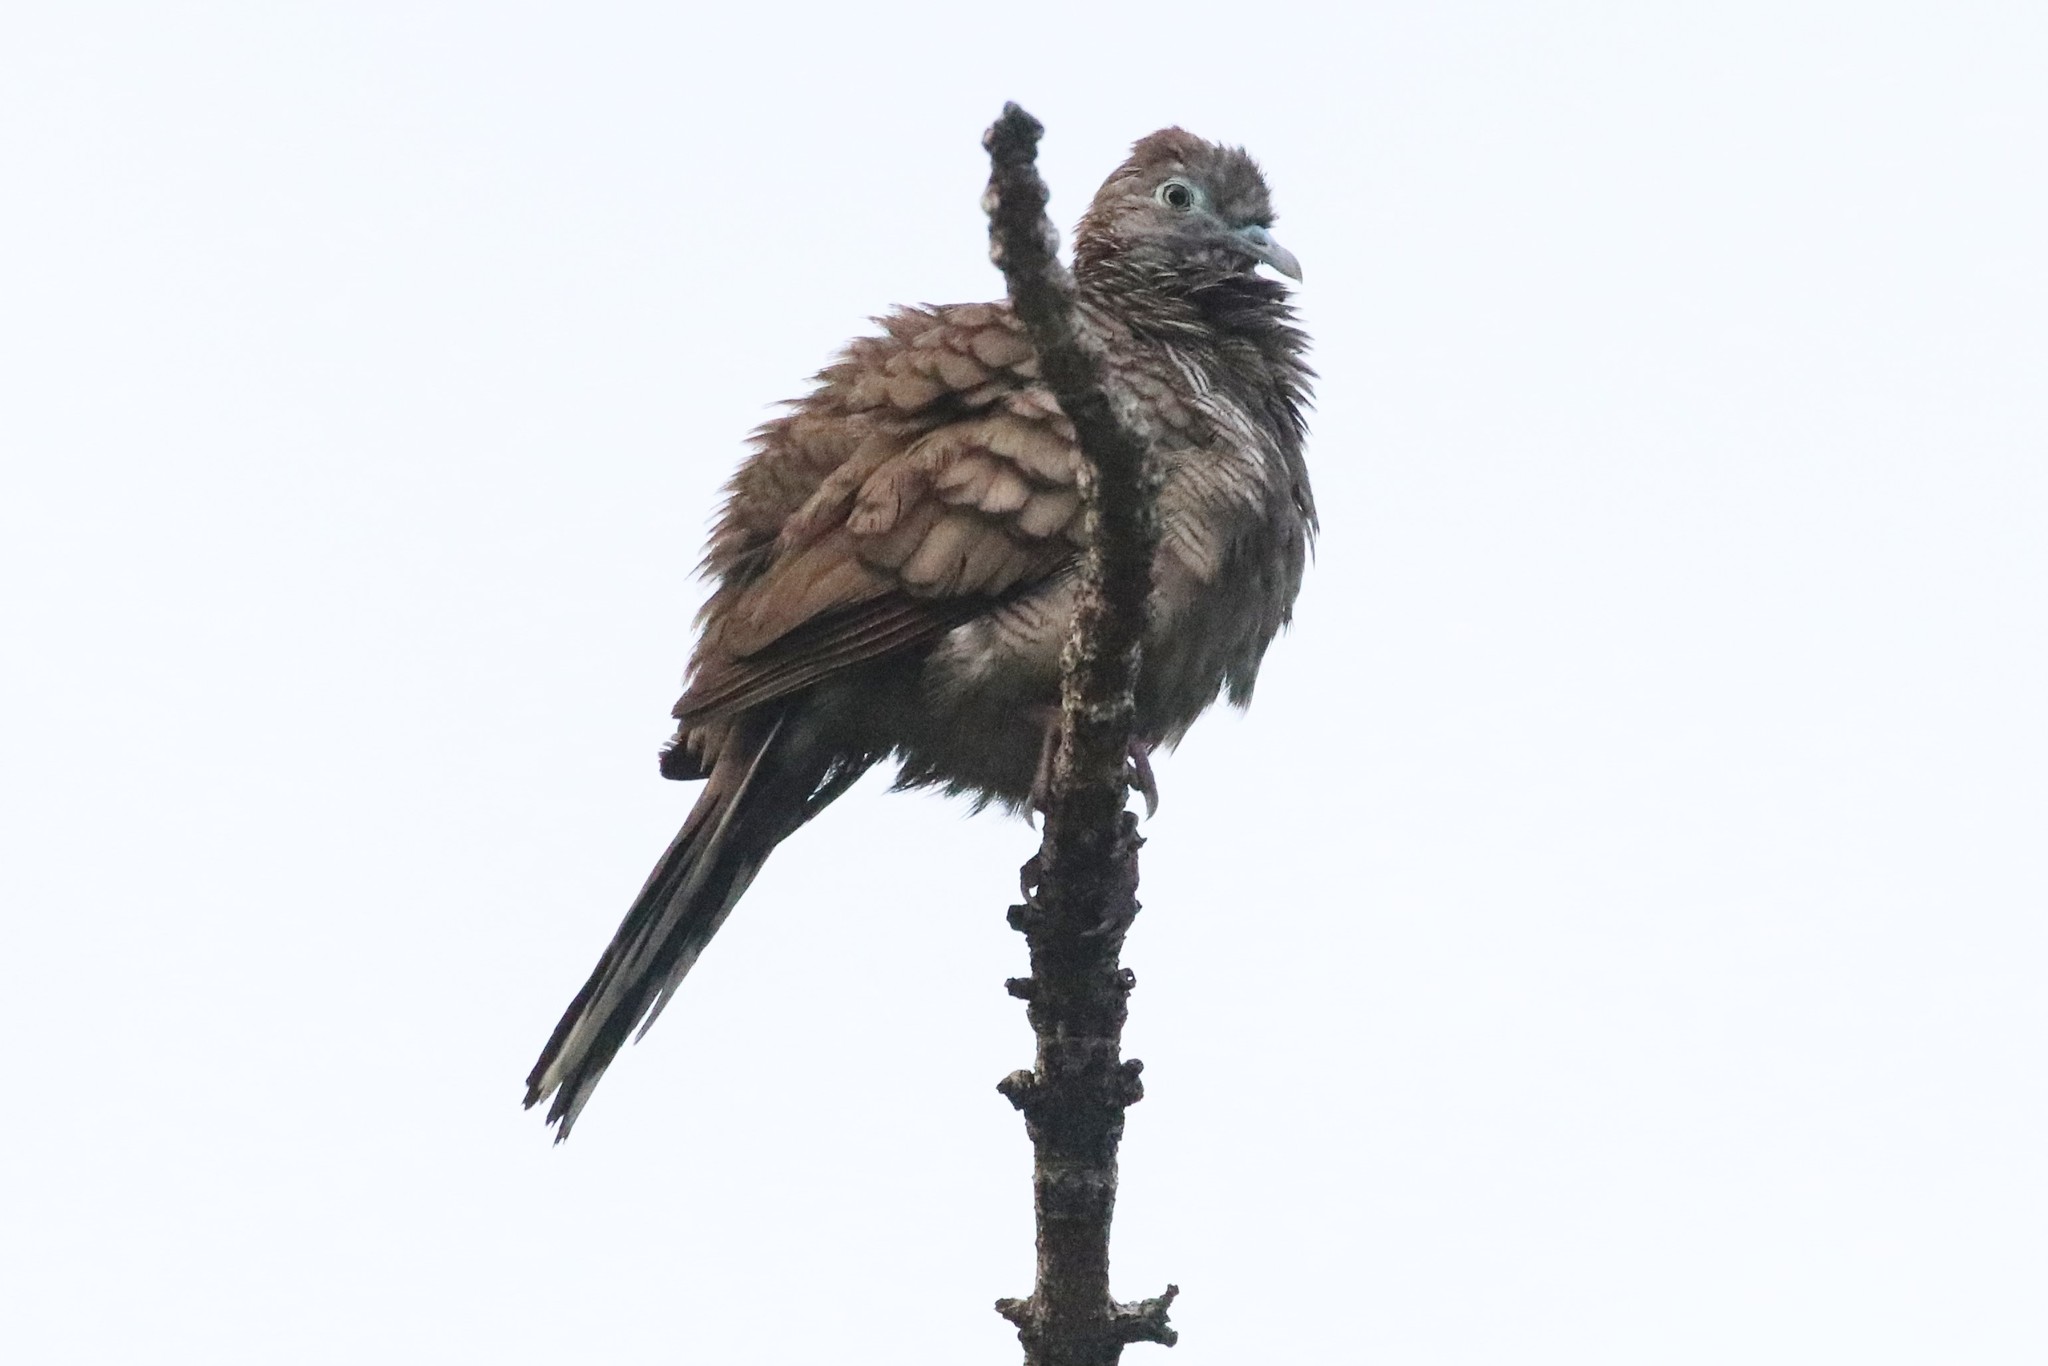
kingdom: Animalia
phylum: Chordata
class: Aves
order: Columbiformes
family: Columbidae
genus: Geopelia
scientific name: Geopelia striata
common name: Zebra dove
